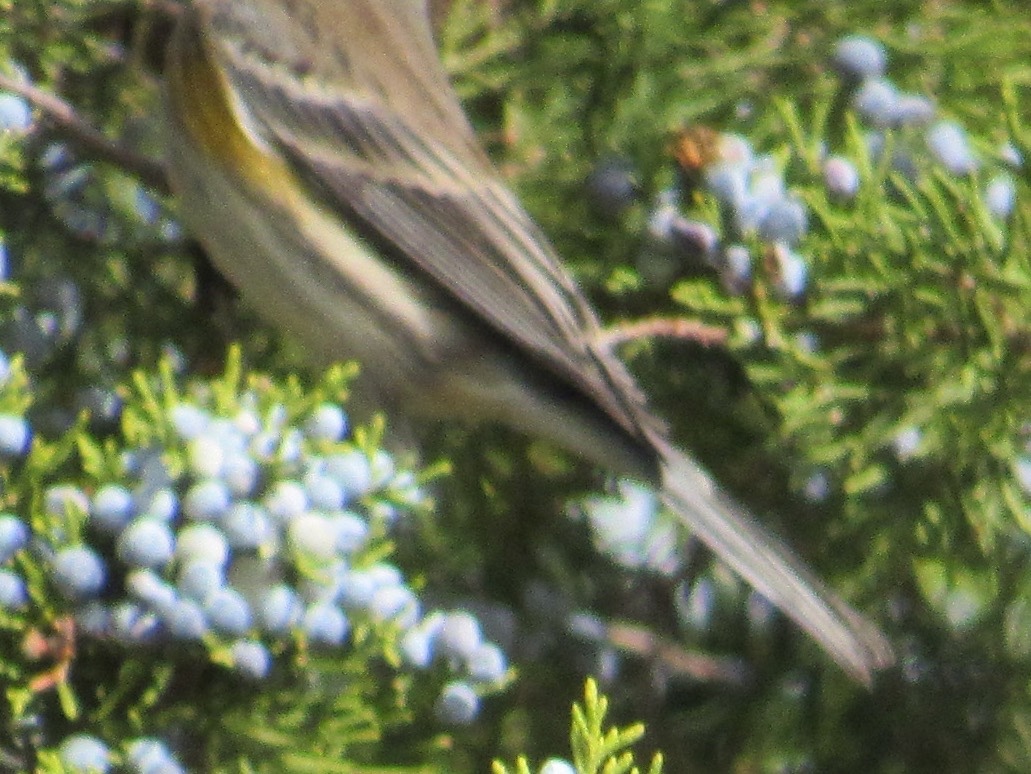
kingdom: Animalia
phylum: Chordata
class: Aves
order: Passeriformes
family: Parulidae
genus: Setophaga
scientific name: Setophaga coronata
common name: Myrtle warbler
